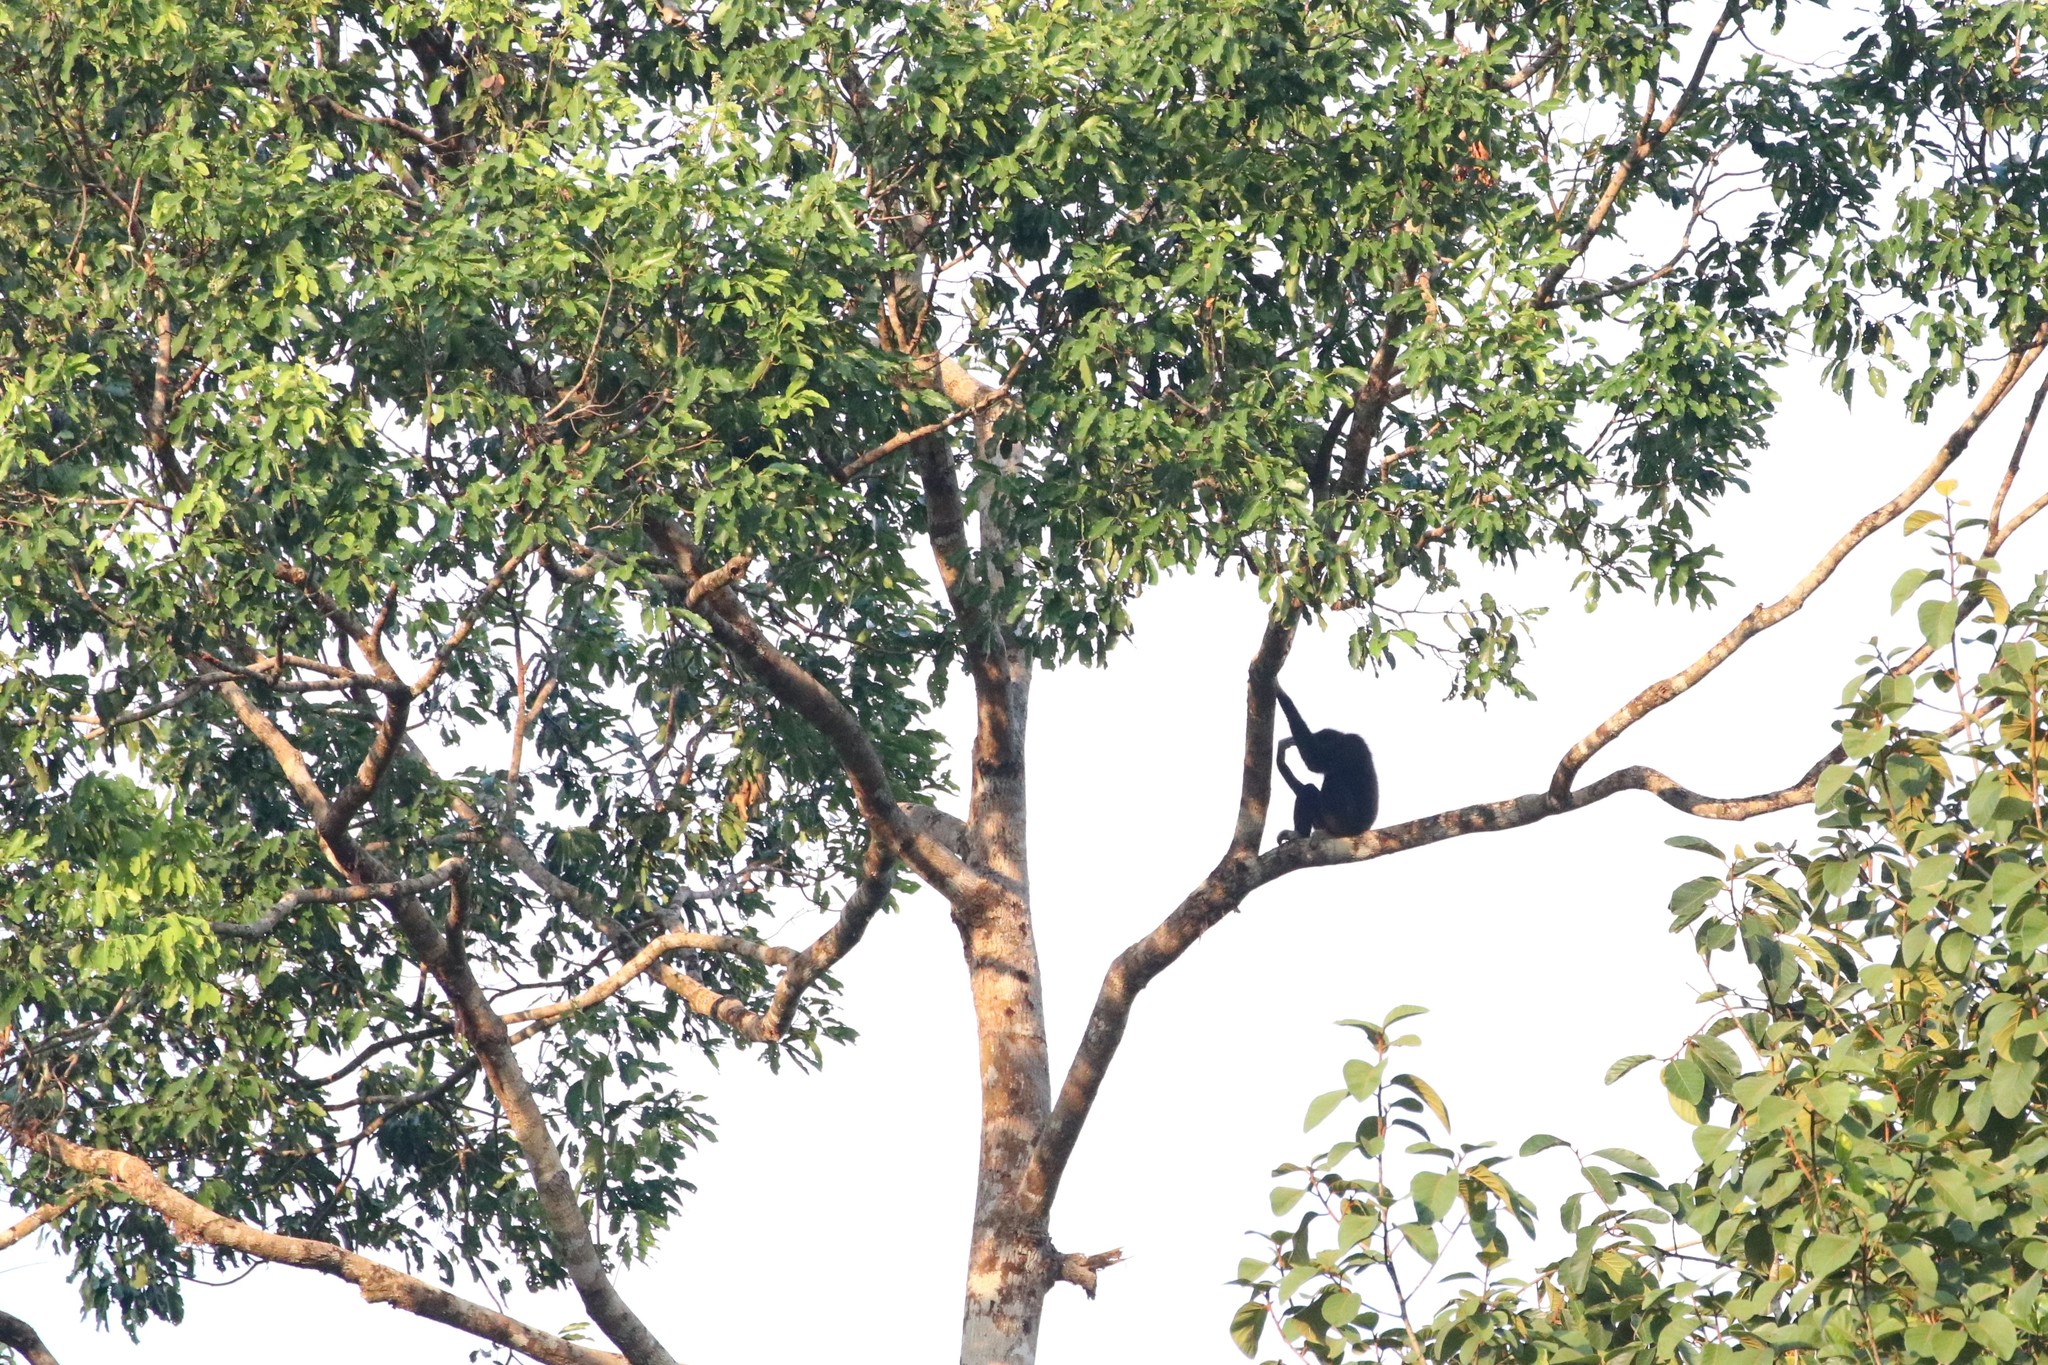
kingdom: Animalia
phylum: Chordata
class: Mammalia
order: Primates
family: Hylobatidae
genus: Hylobates
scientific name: Hylobates lar
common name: Lar gibbon
